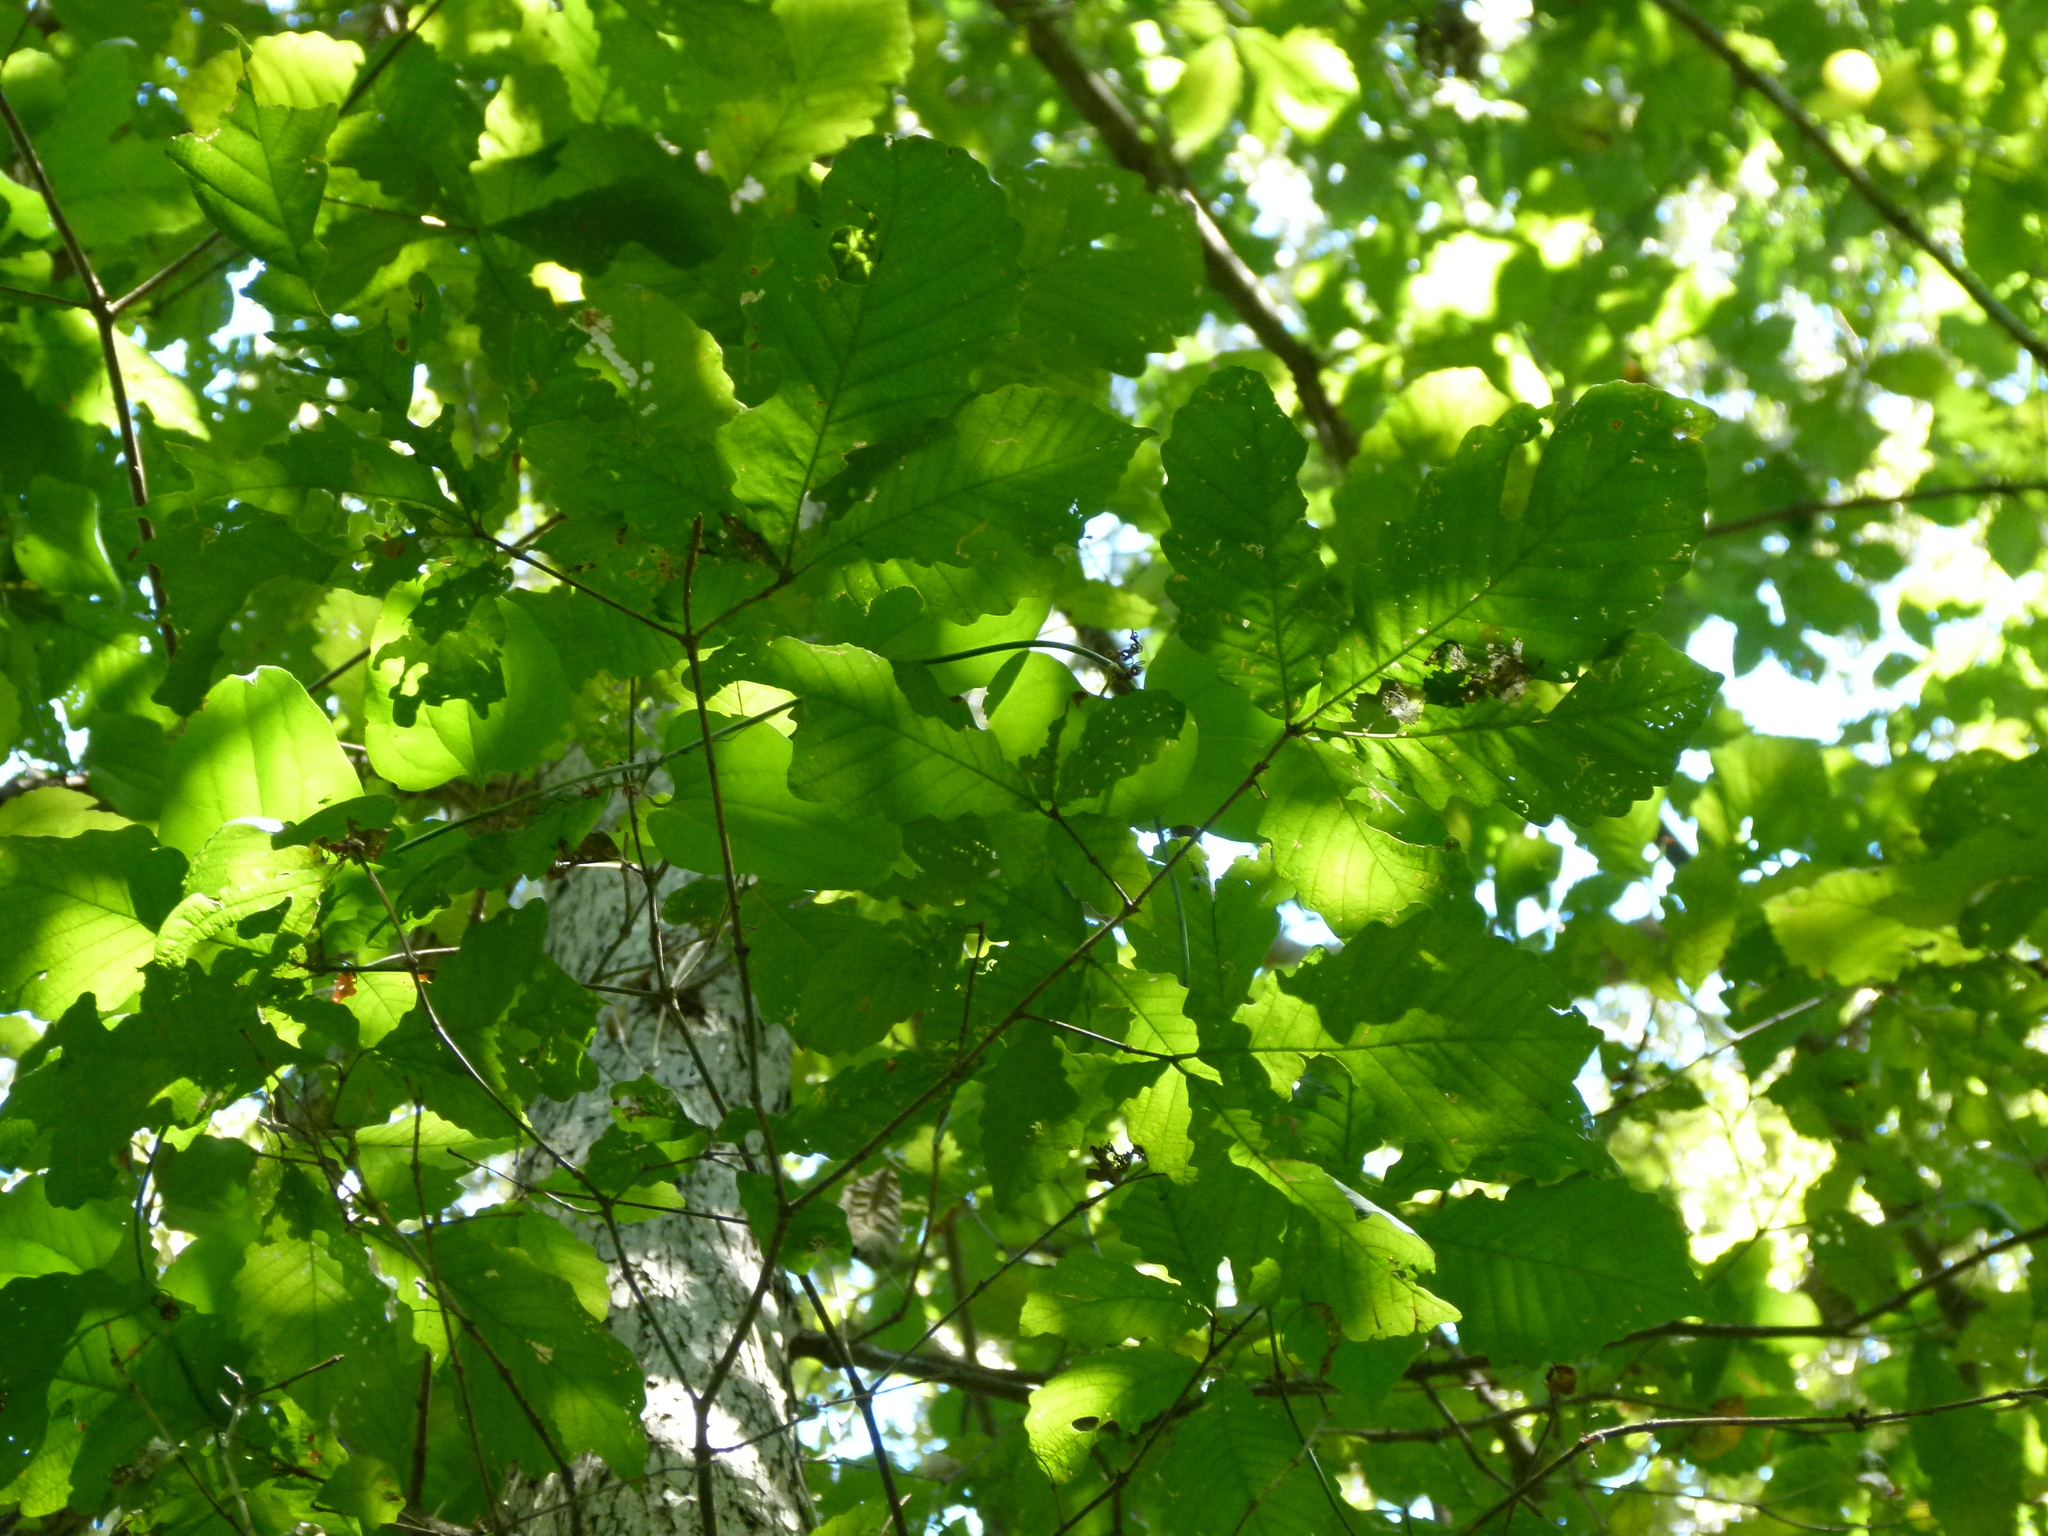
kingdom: Plantae
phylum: Tracheophyta
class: Magnoliopsida
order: Fagales
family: Fagaceae
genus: Quercus
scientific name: Quercus michauxii
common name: Swamp chestnut oak
